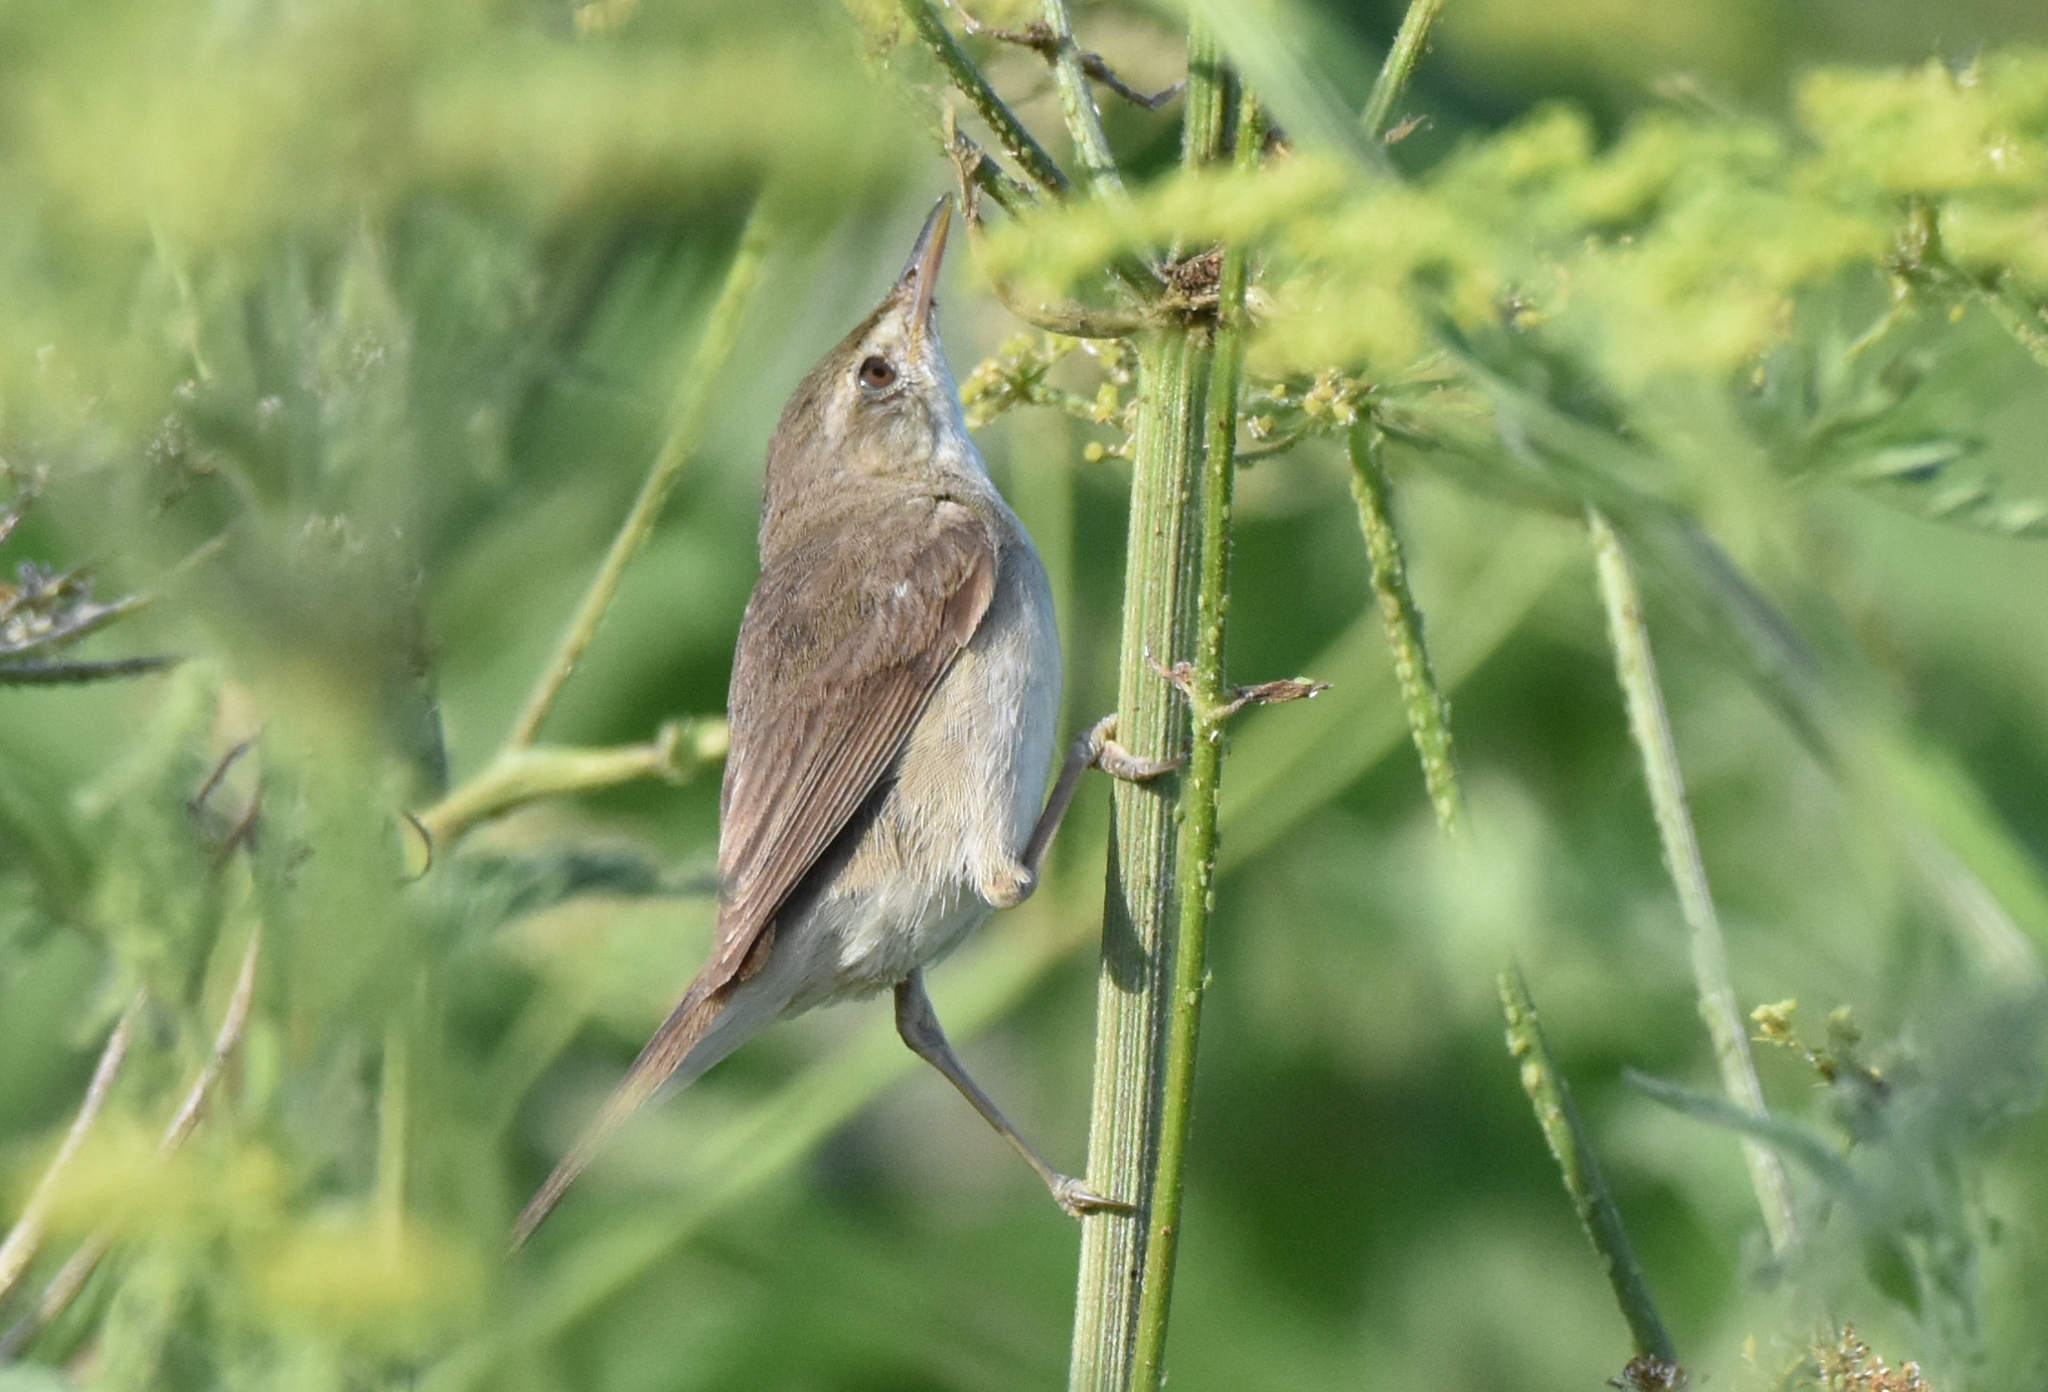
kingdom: Animalia
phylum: Chordata
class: Aves
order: Passeriformes
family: Acrocephalidae
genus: Acrocephalus
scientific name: Acrocephalus dumetorum
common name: Blyth's reed warbler
